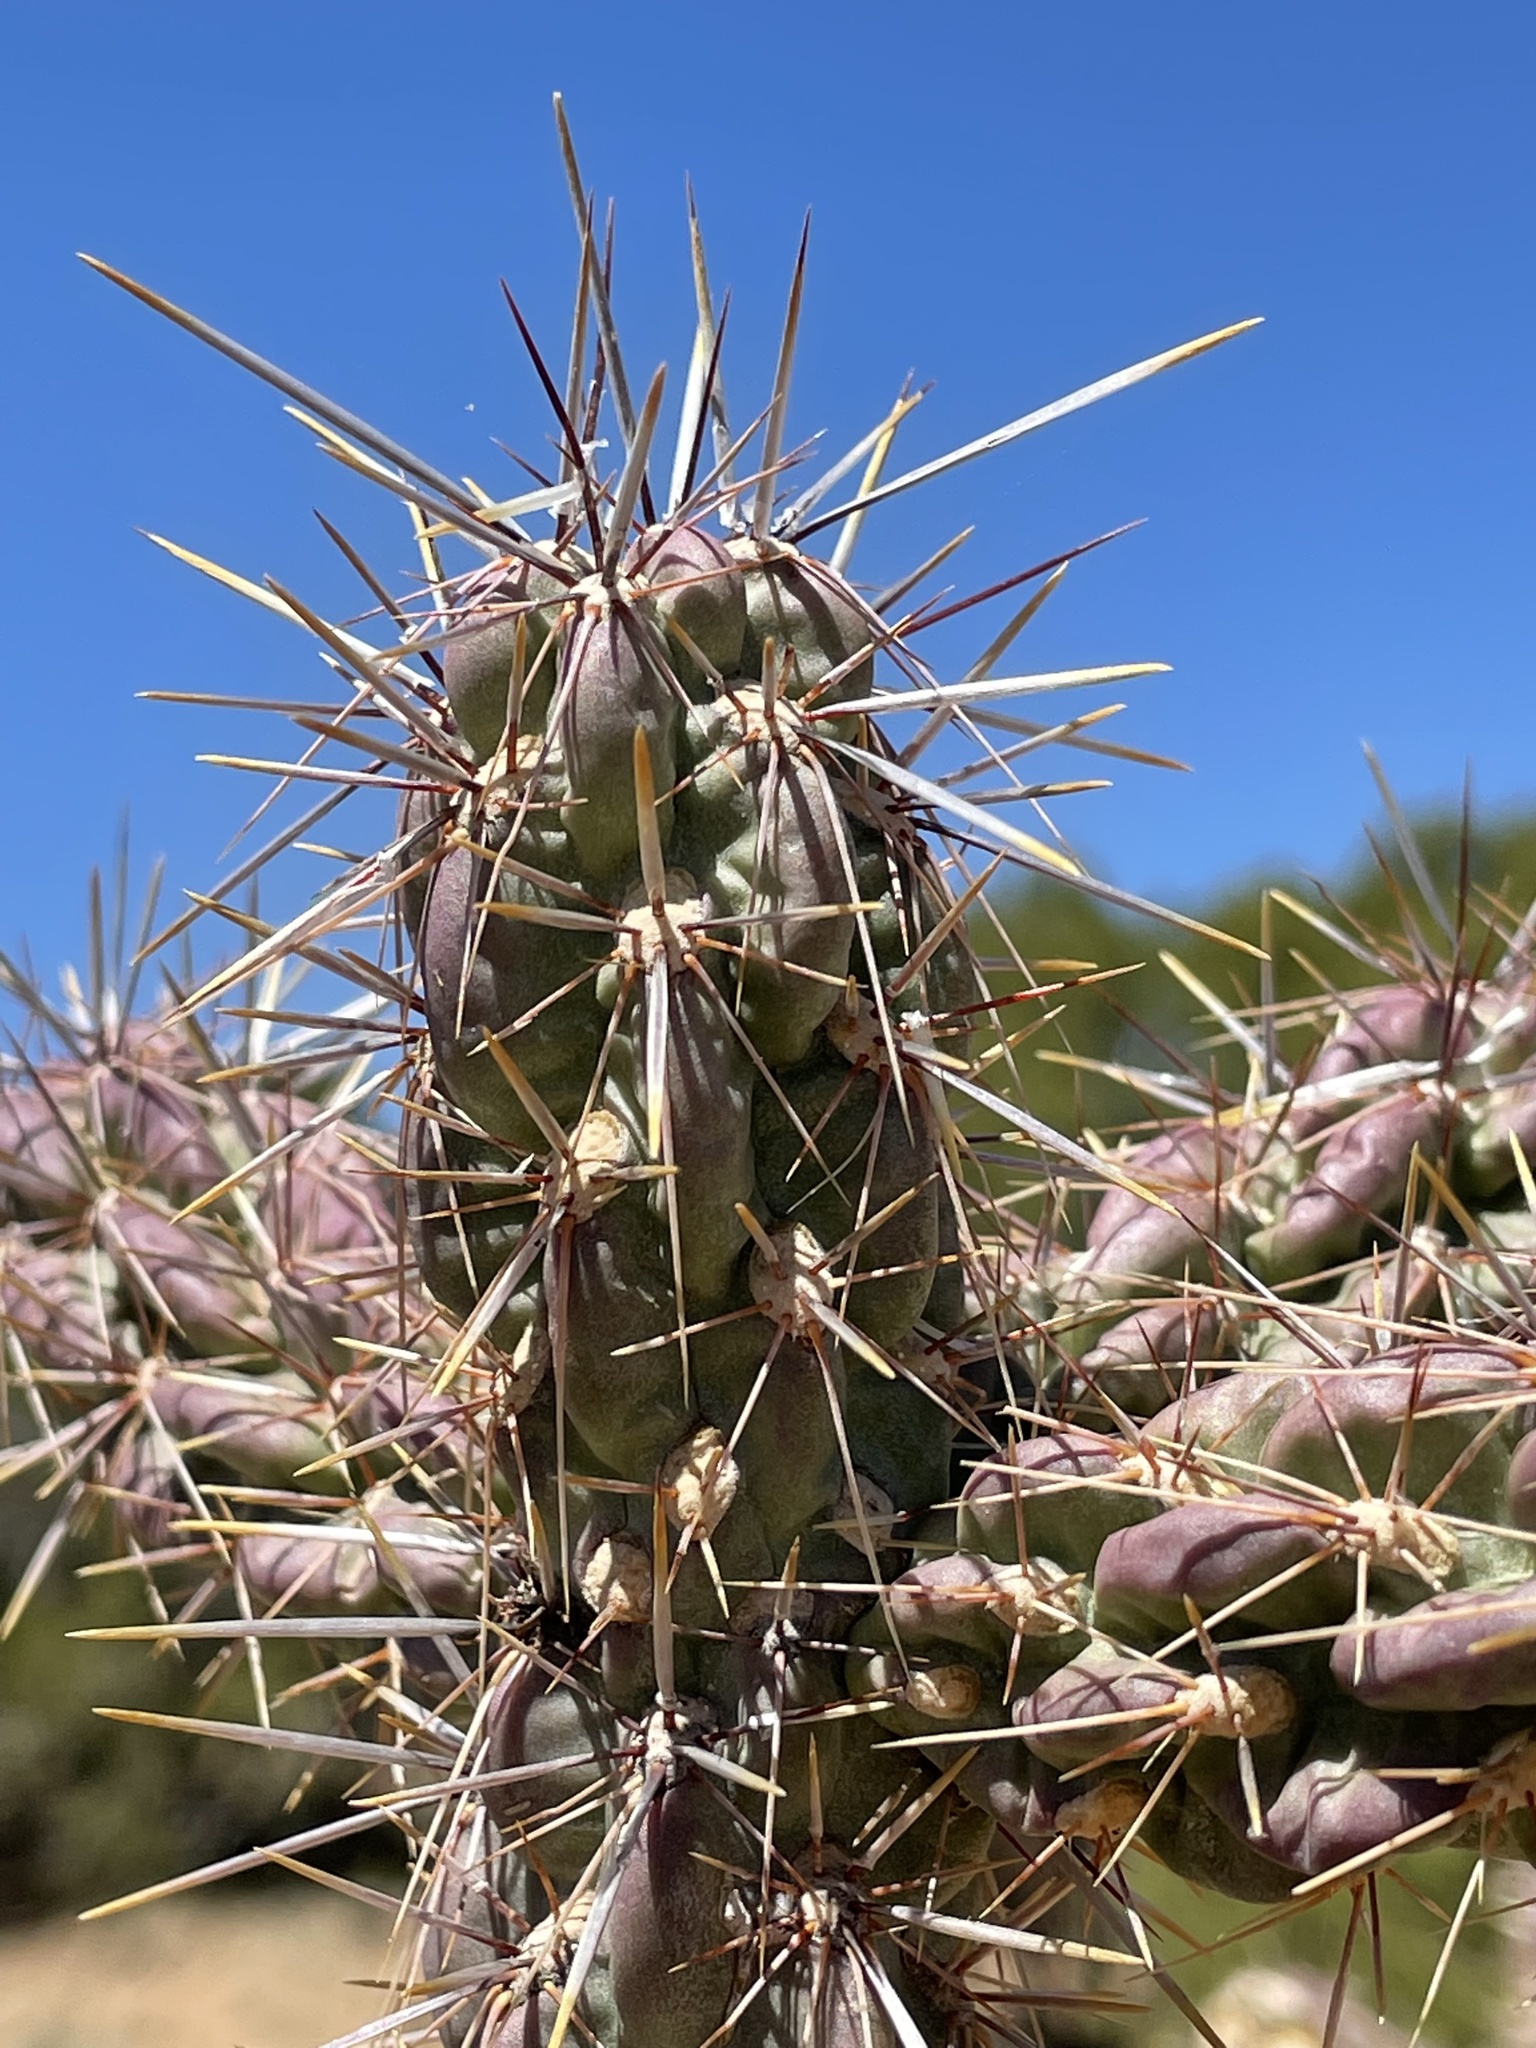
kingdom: Plantae
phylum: Tracheophyta
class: Magnoliopsida
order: Caryophyllales
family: Cactaceae
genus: Cylindropuntia
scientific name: Cylindropuntia imbricata
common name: Candelabrum cactus
